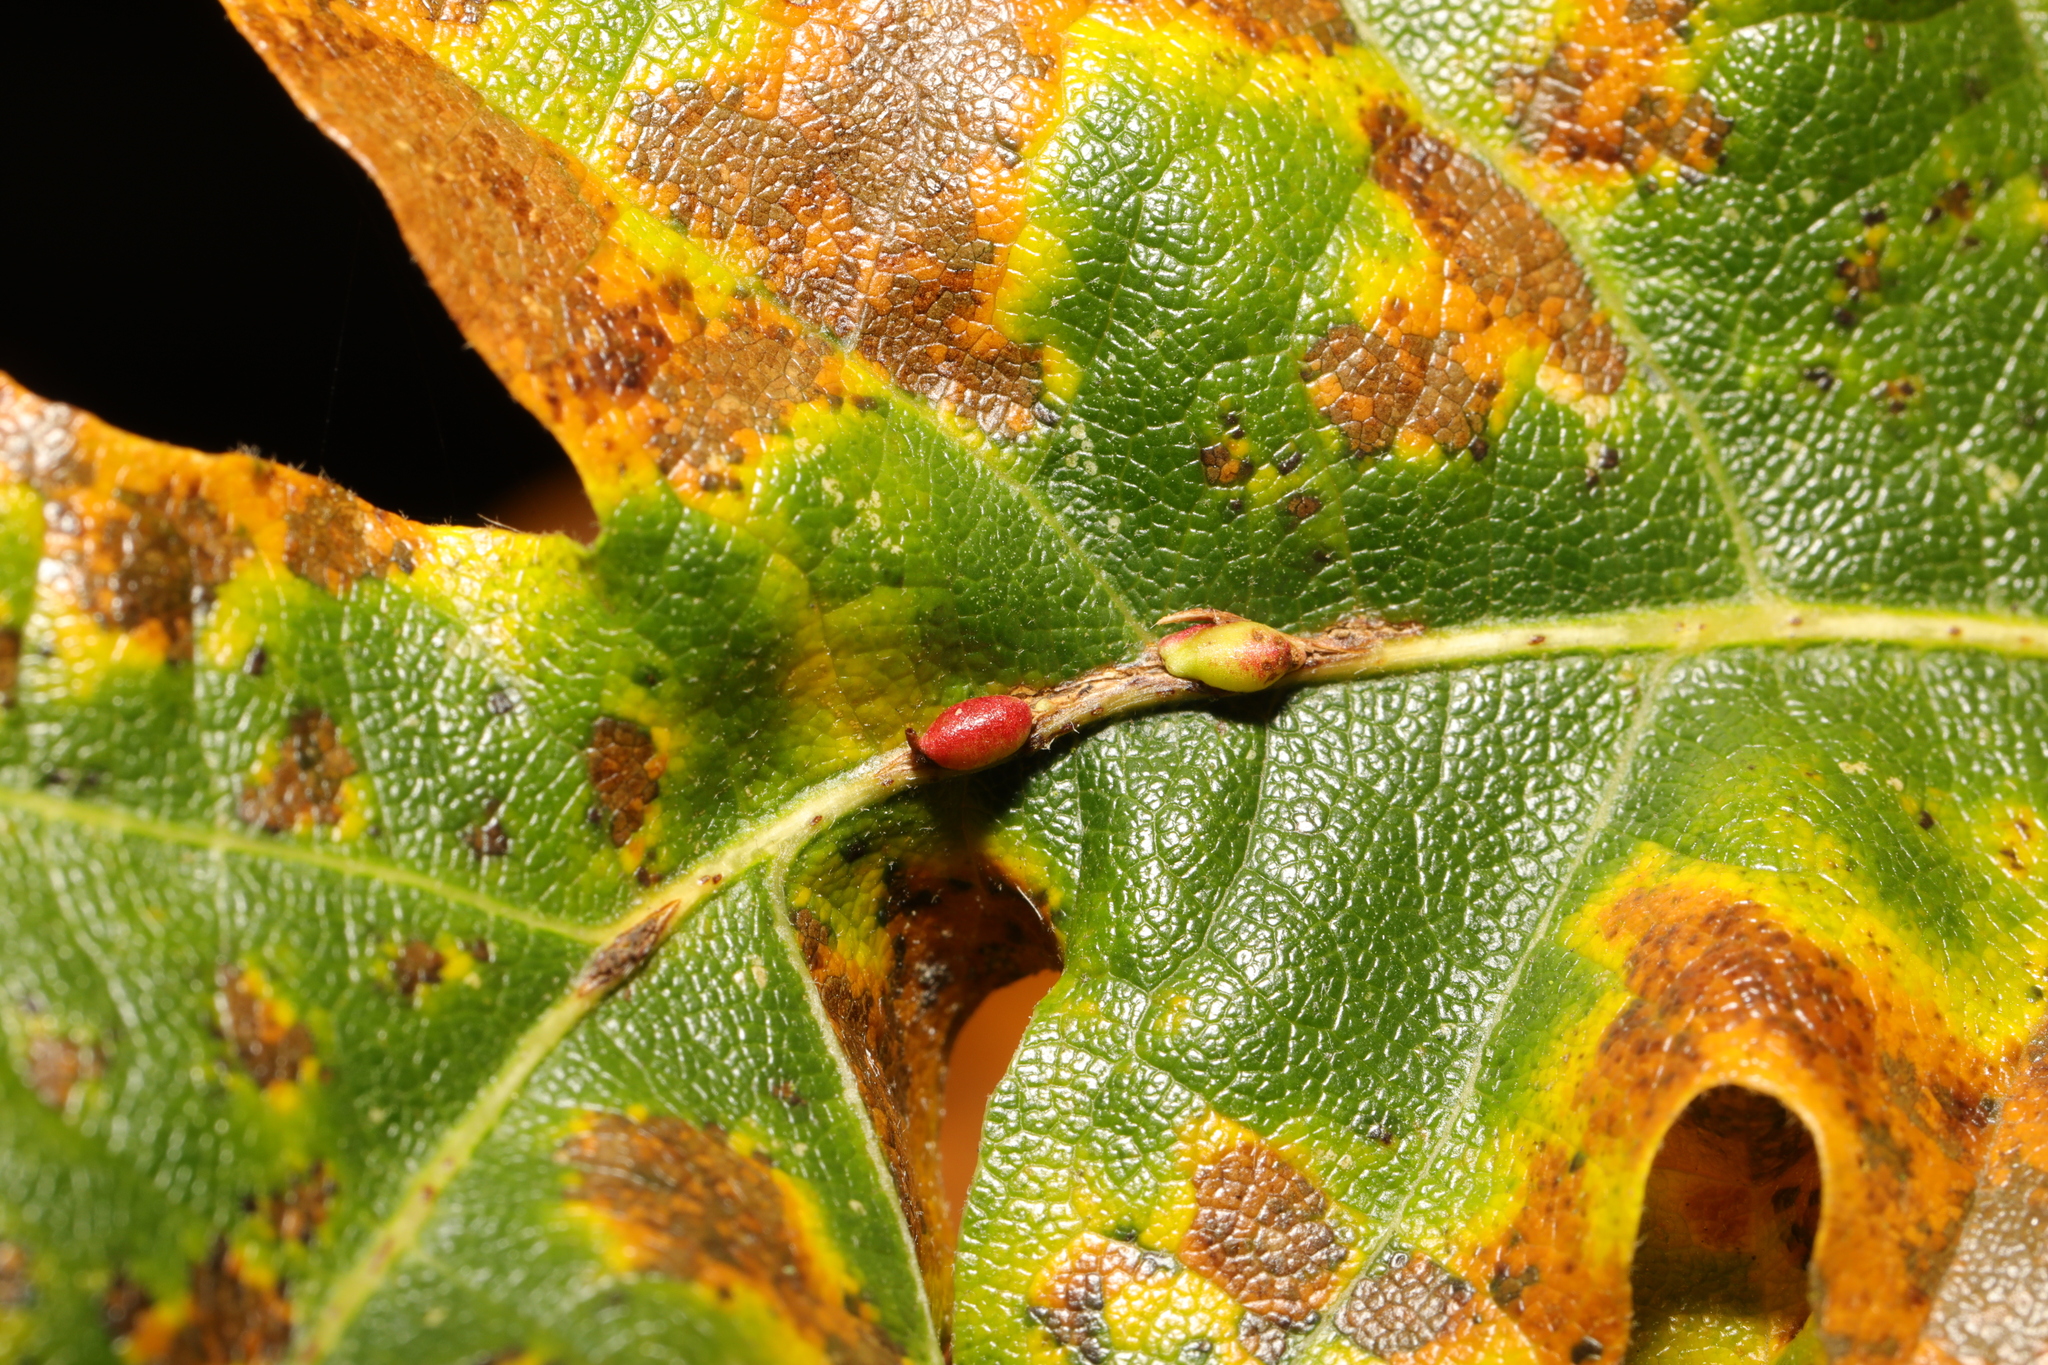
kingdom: Animalia
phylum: Arthropoda
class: Insecta
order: Hymenoptera
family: Cynipidae
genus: Neuroterus
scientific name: Neuroterus saliens
